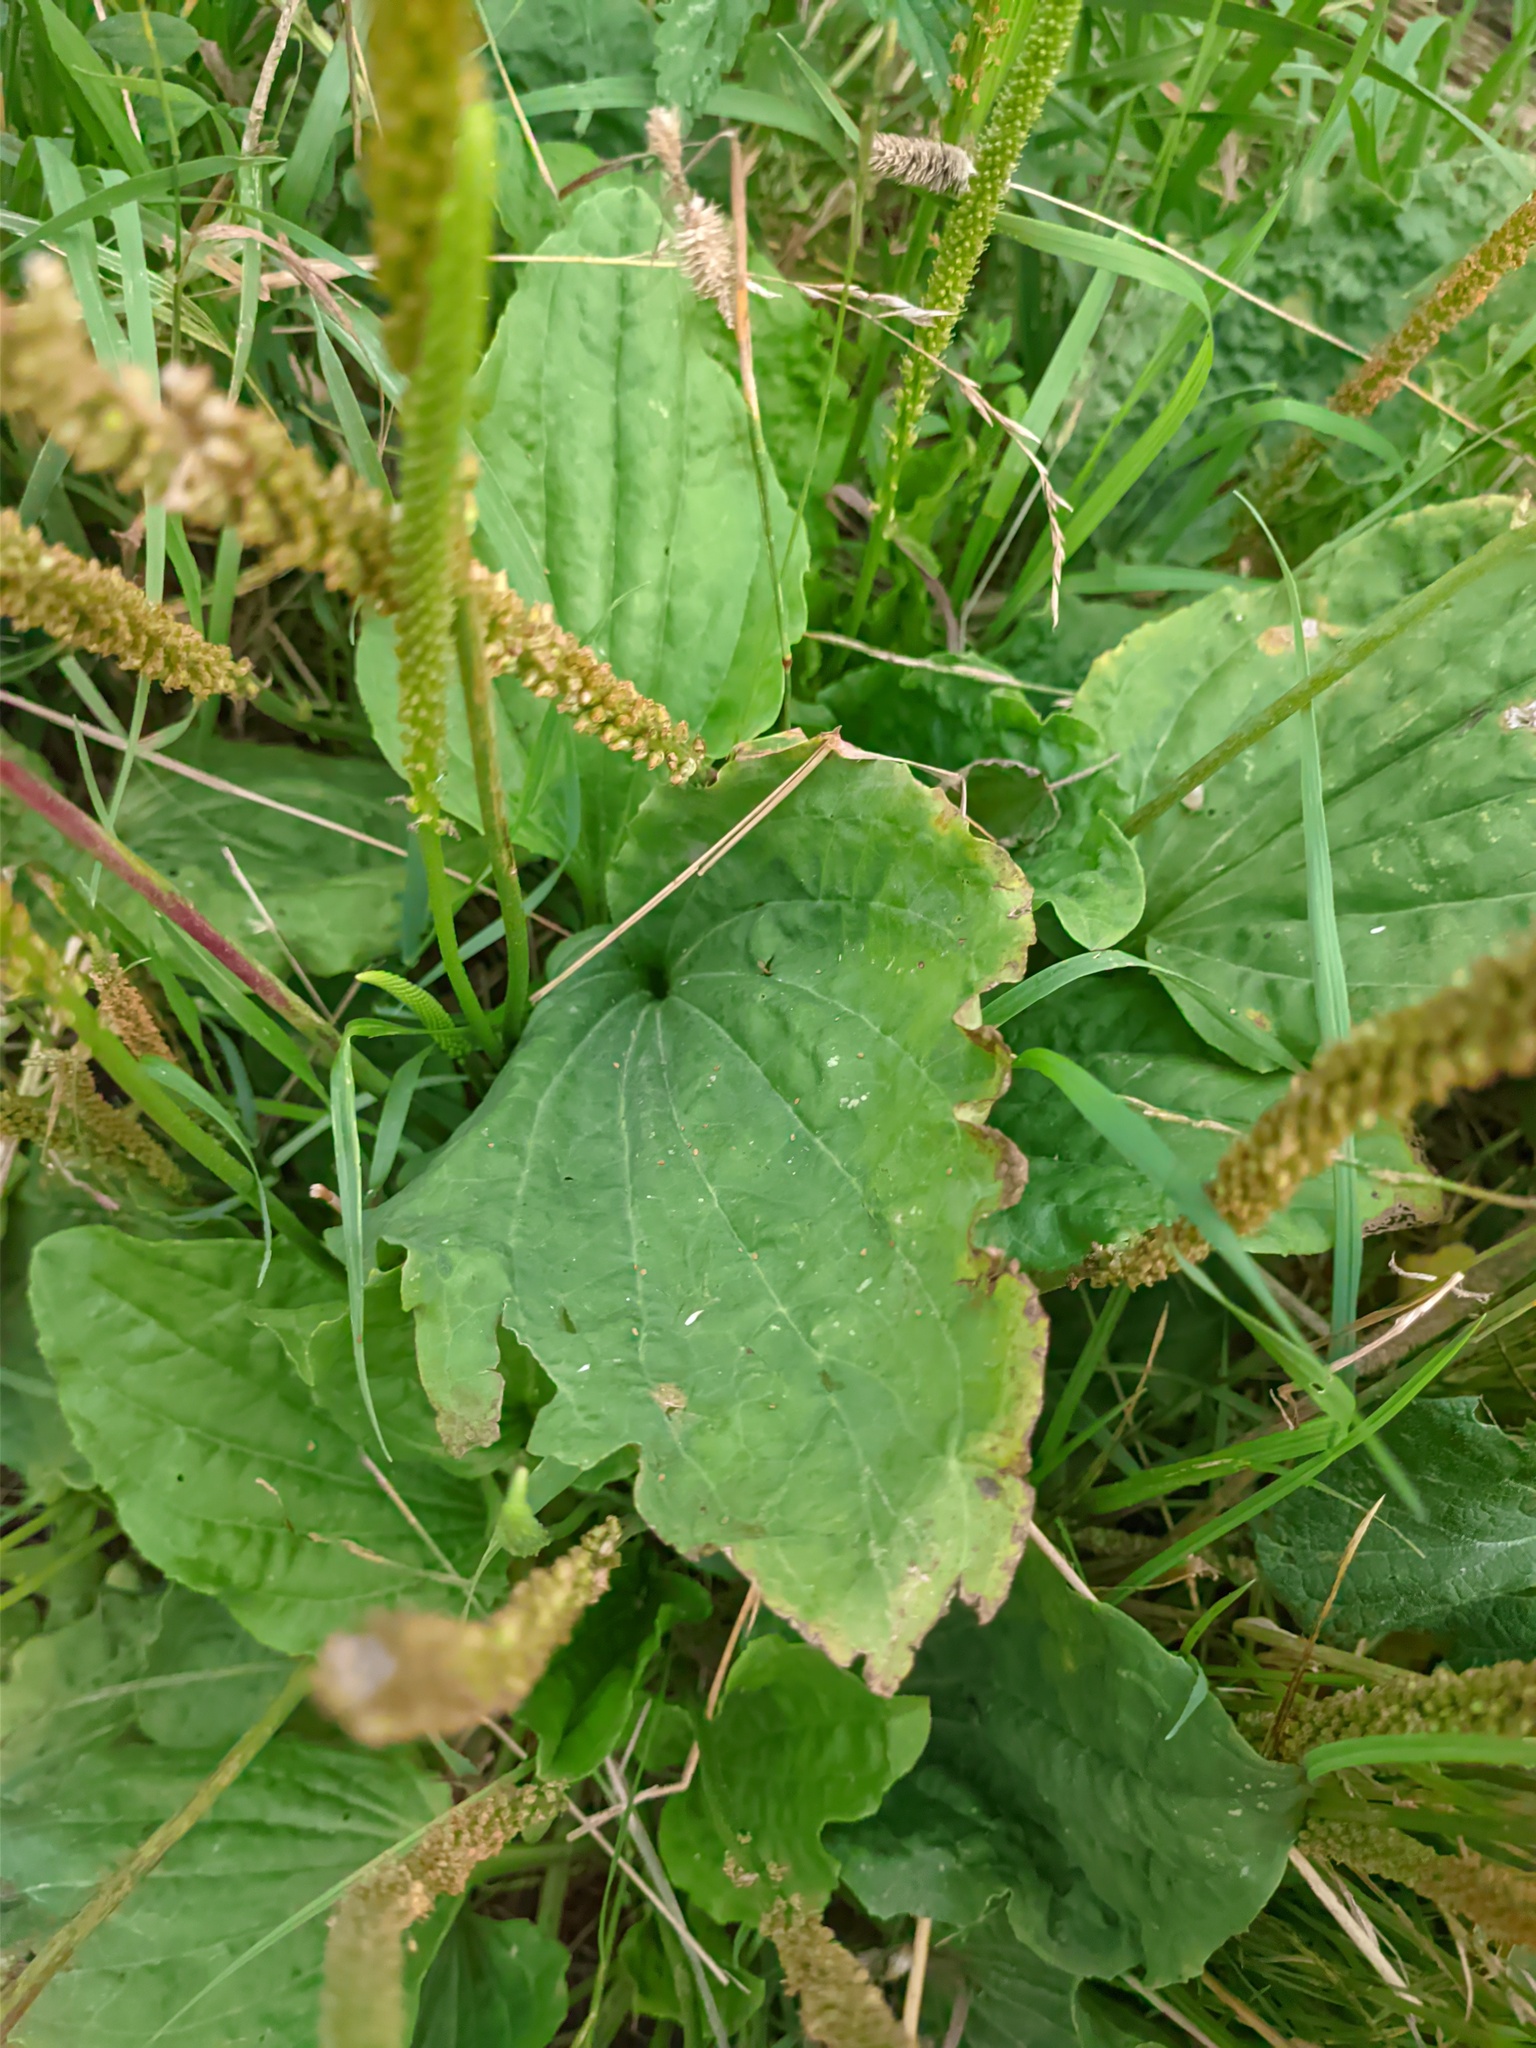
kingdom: Plantae
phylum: Tracheophyta
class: Magnoliopsida
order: Lamiales
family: Plantaginaceae
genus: Plantago
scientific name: Plantago major
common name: Common plantain
